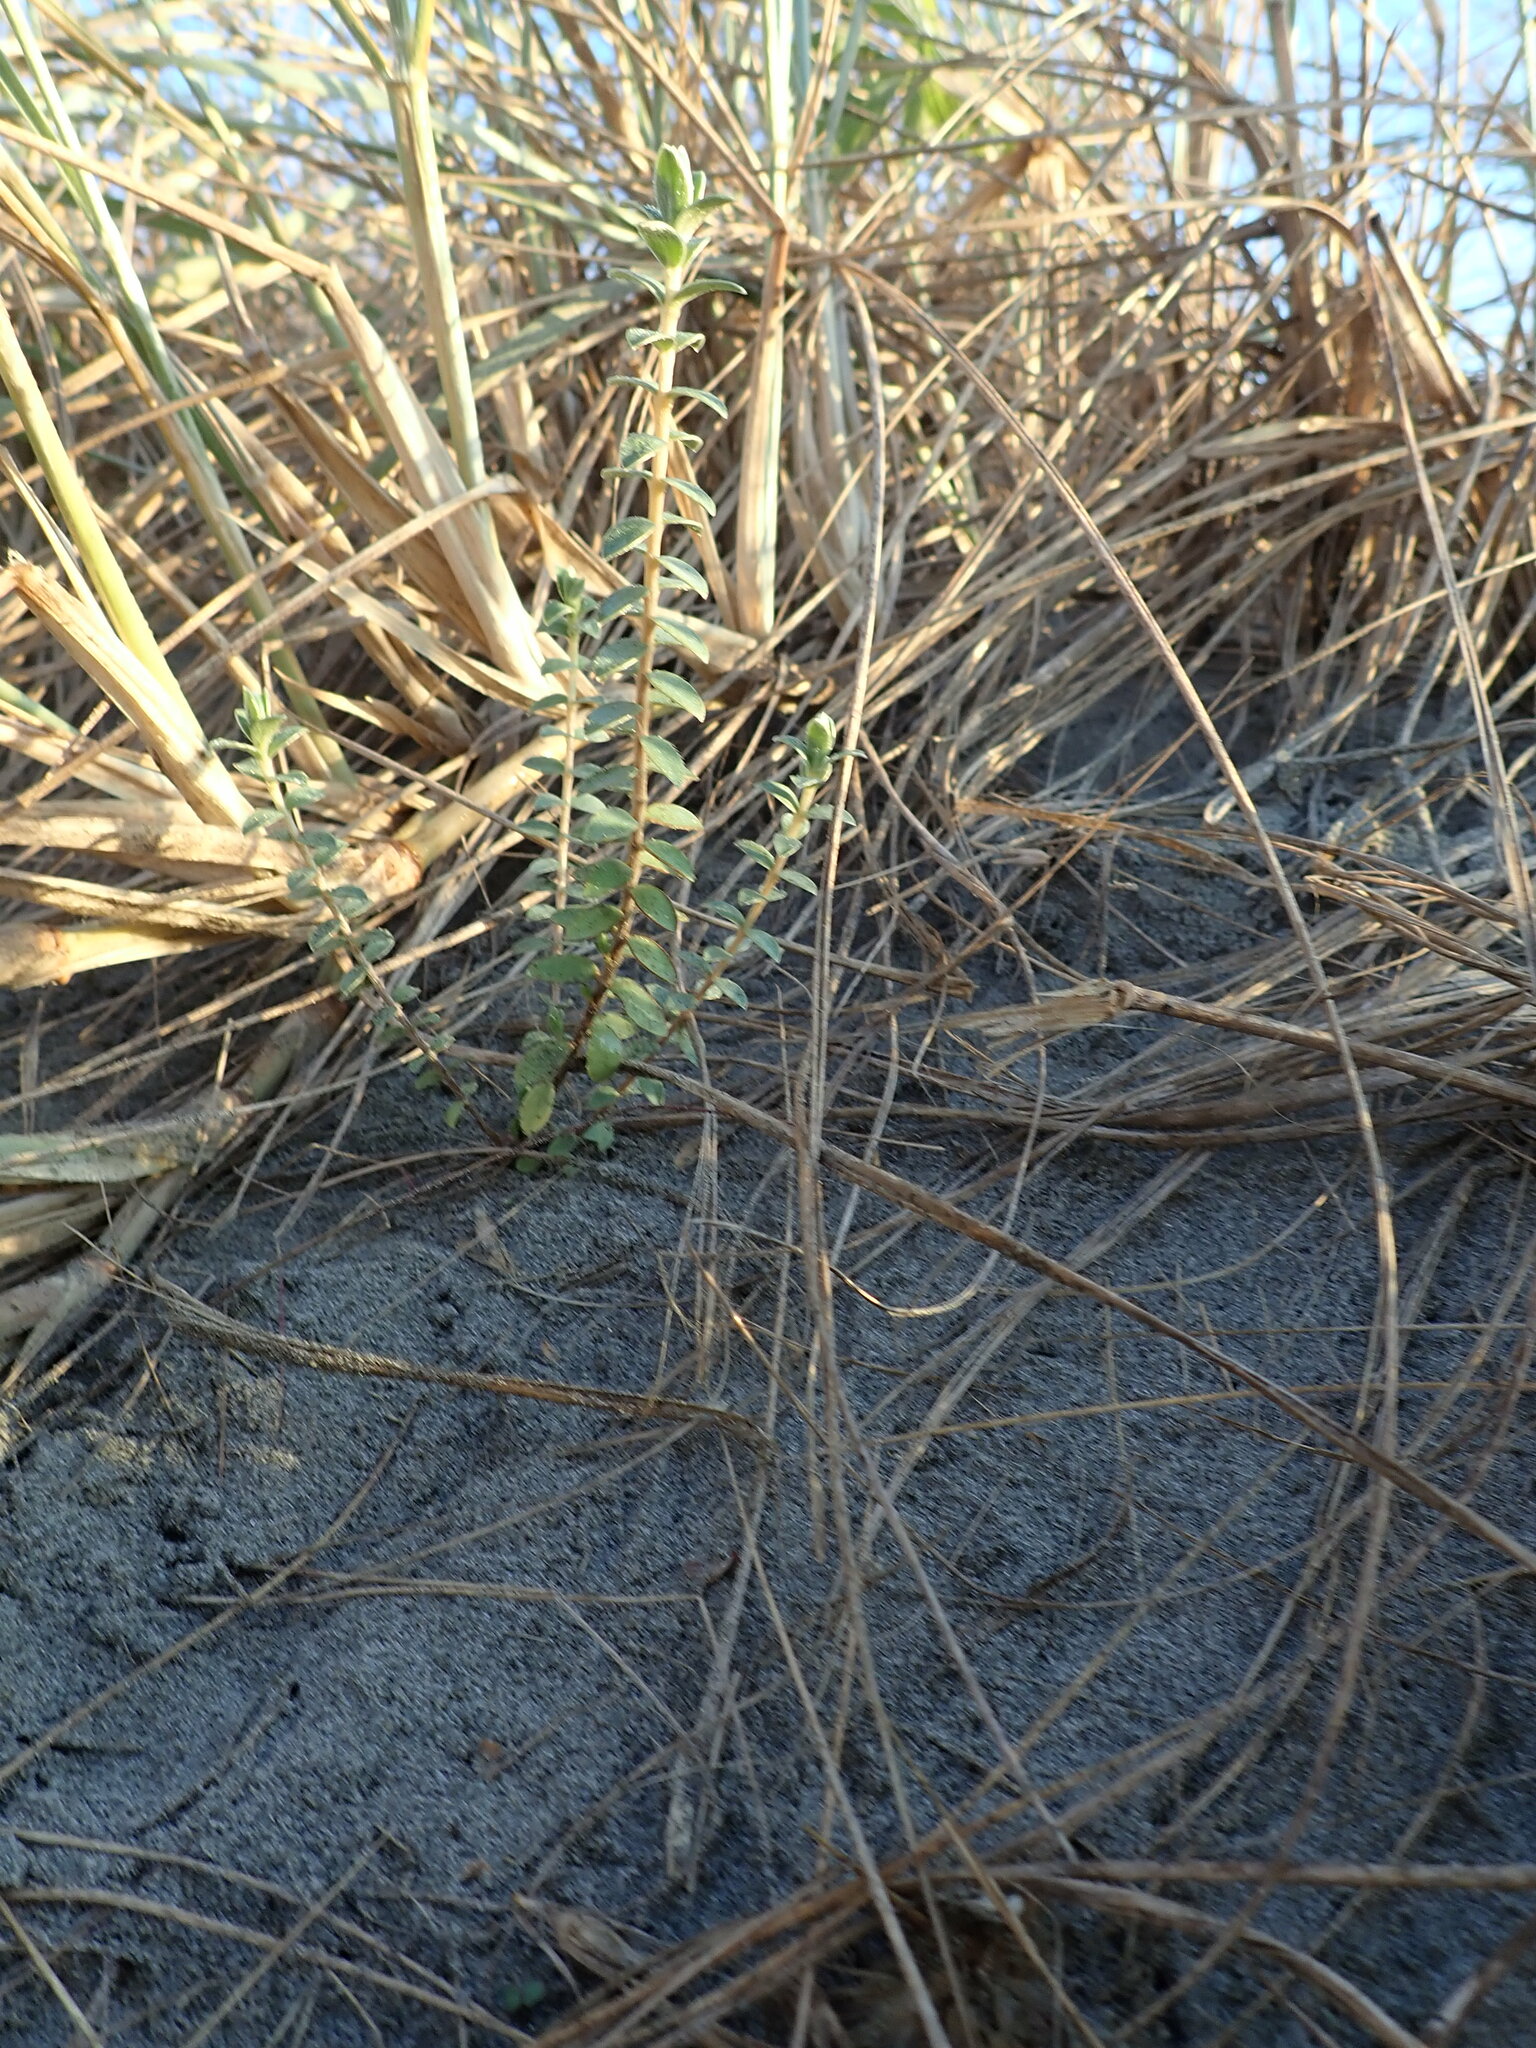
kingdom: Plantae
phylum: Tracheophyta
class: Magnoliopsida
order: Malvales
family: Thymelaeaceae
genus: Pimelea
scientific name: Pimelea villosa
